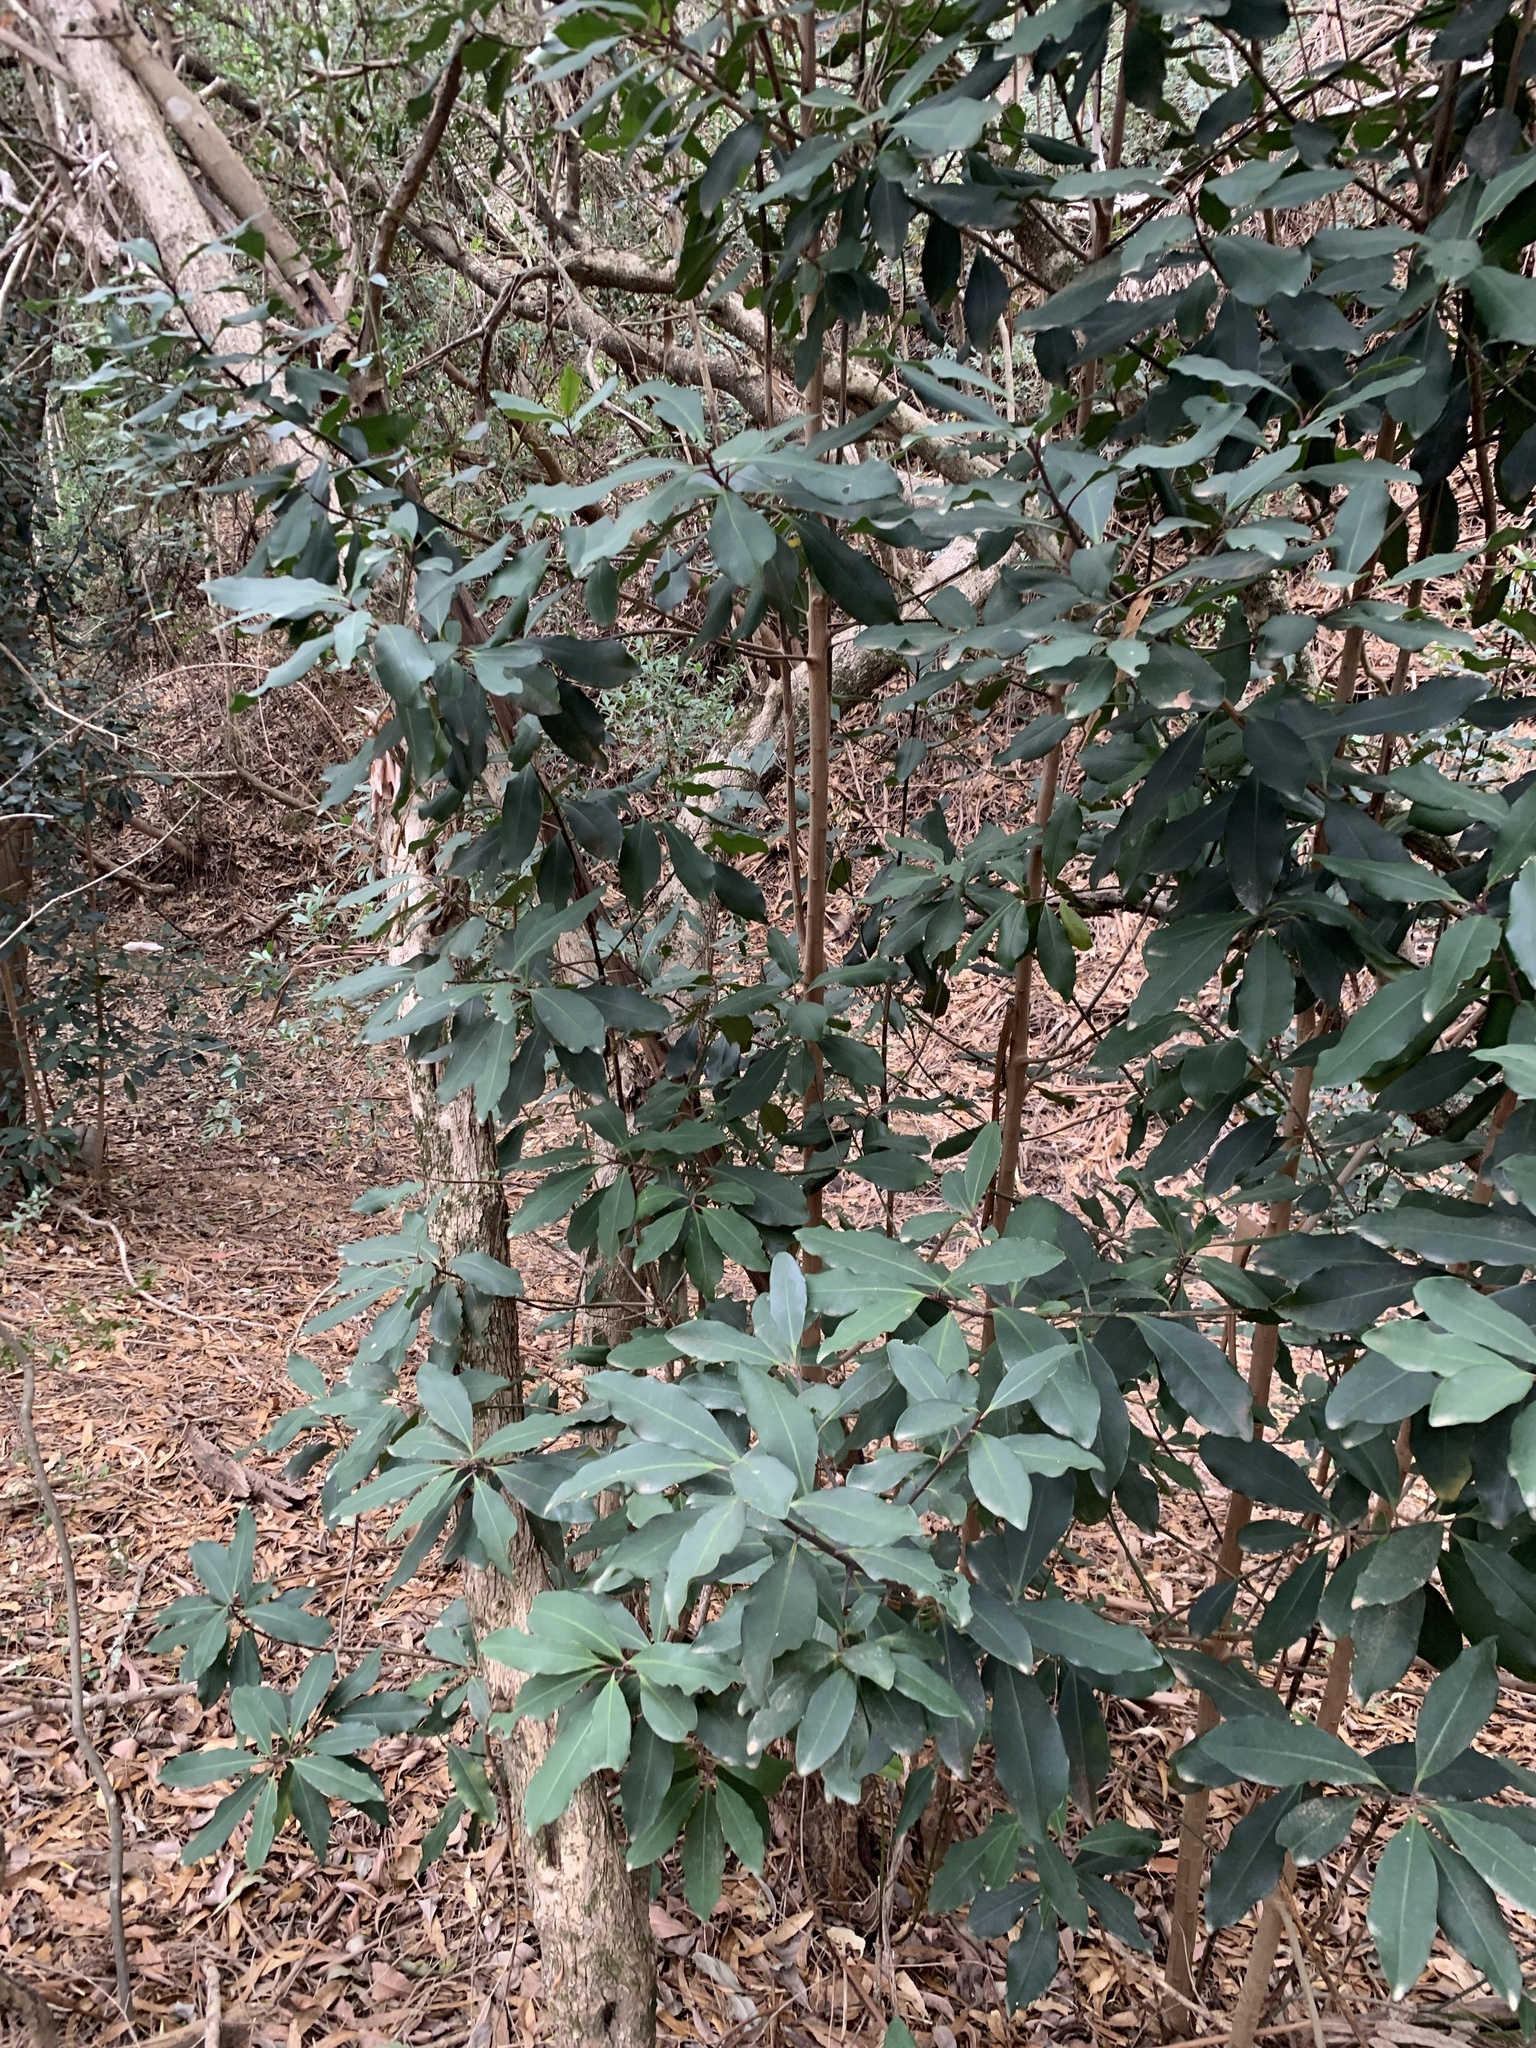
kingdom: Plantae
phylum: Tracheophyta
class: Magnoliopsida
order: Ericales
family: Primulaceae
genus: Myrsine
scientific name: Myrsine melanophloeos
